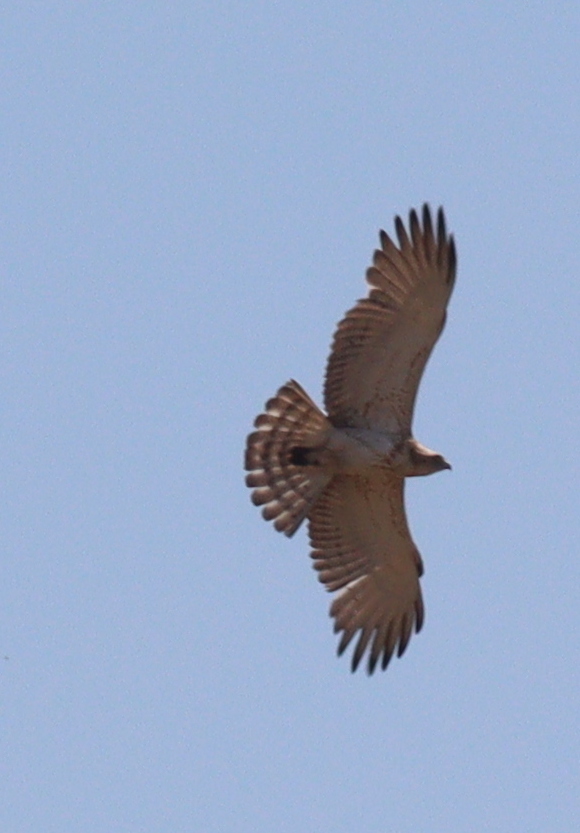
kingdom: Animalia
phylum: Chordata
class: Aves
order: Accipitriformes
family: Accipitridae
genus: Circaetus
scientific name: Circaetus gallicus
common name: Short-toed snake eagle
